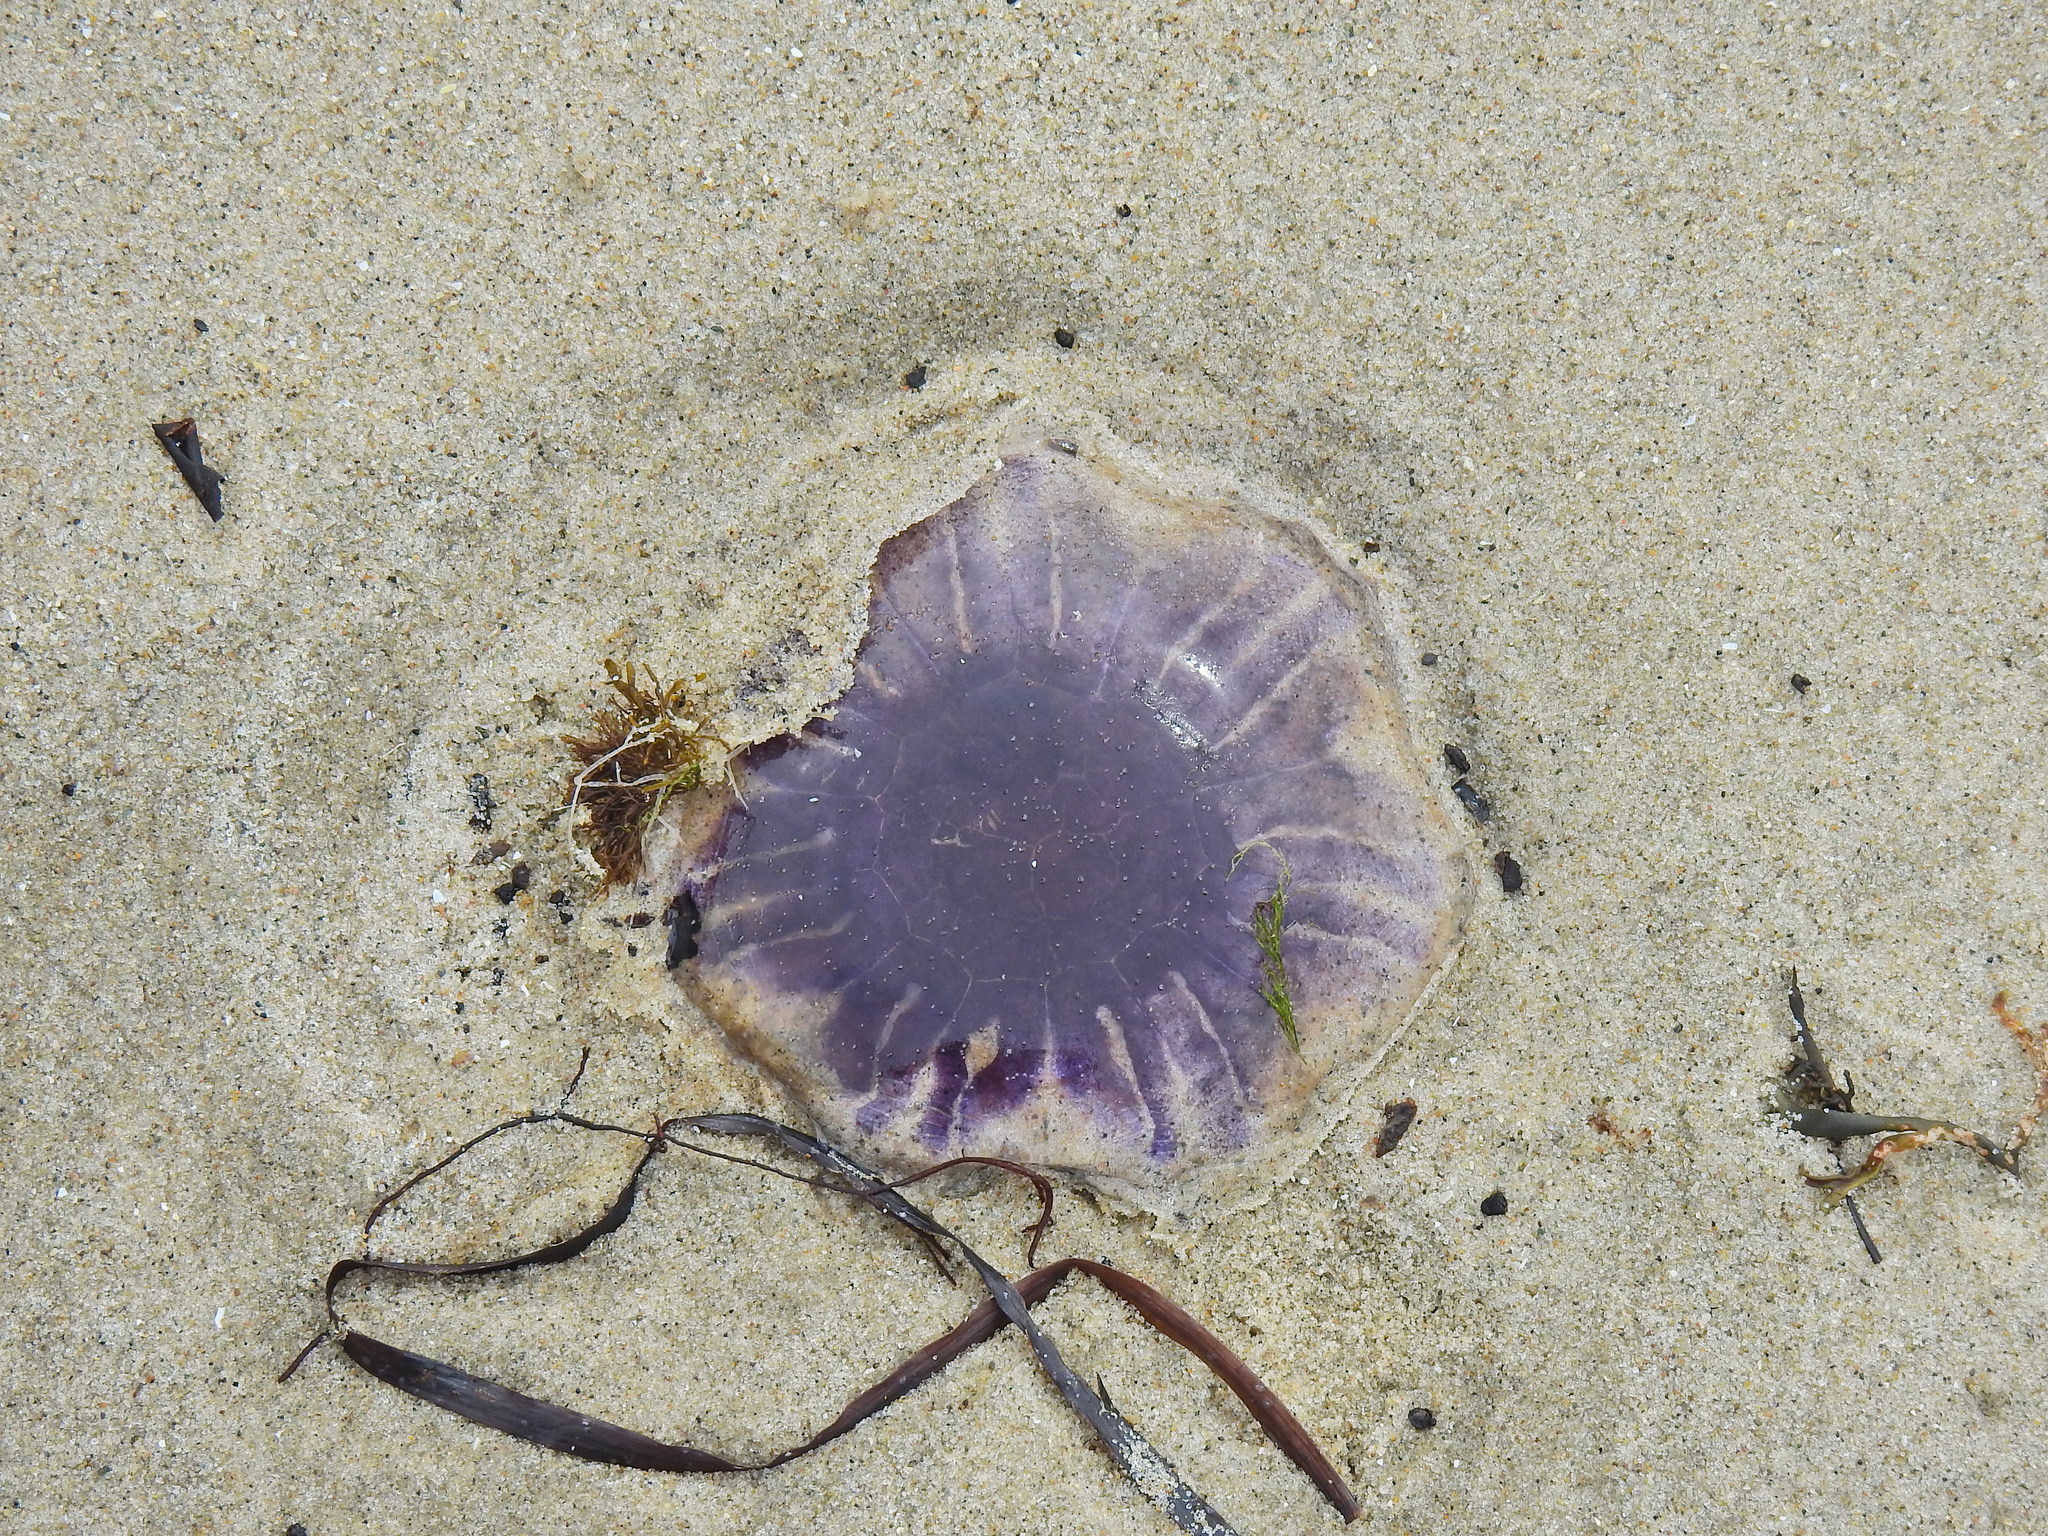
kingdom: Animalia
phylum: Cnidaria
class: Scyphozoa
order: Semaeostomeae
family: Cyaneidae
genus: Cyanea
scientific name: Cyanea lamarckii
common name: Blue jellyfish
